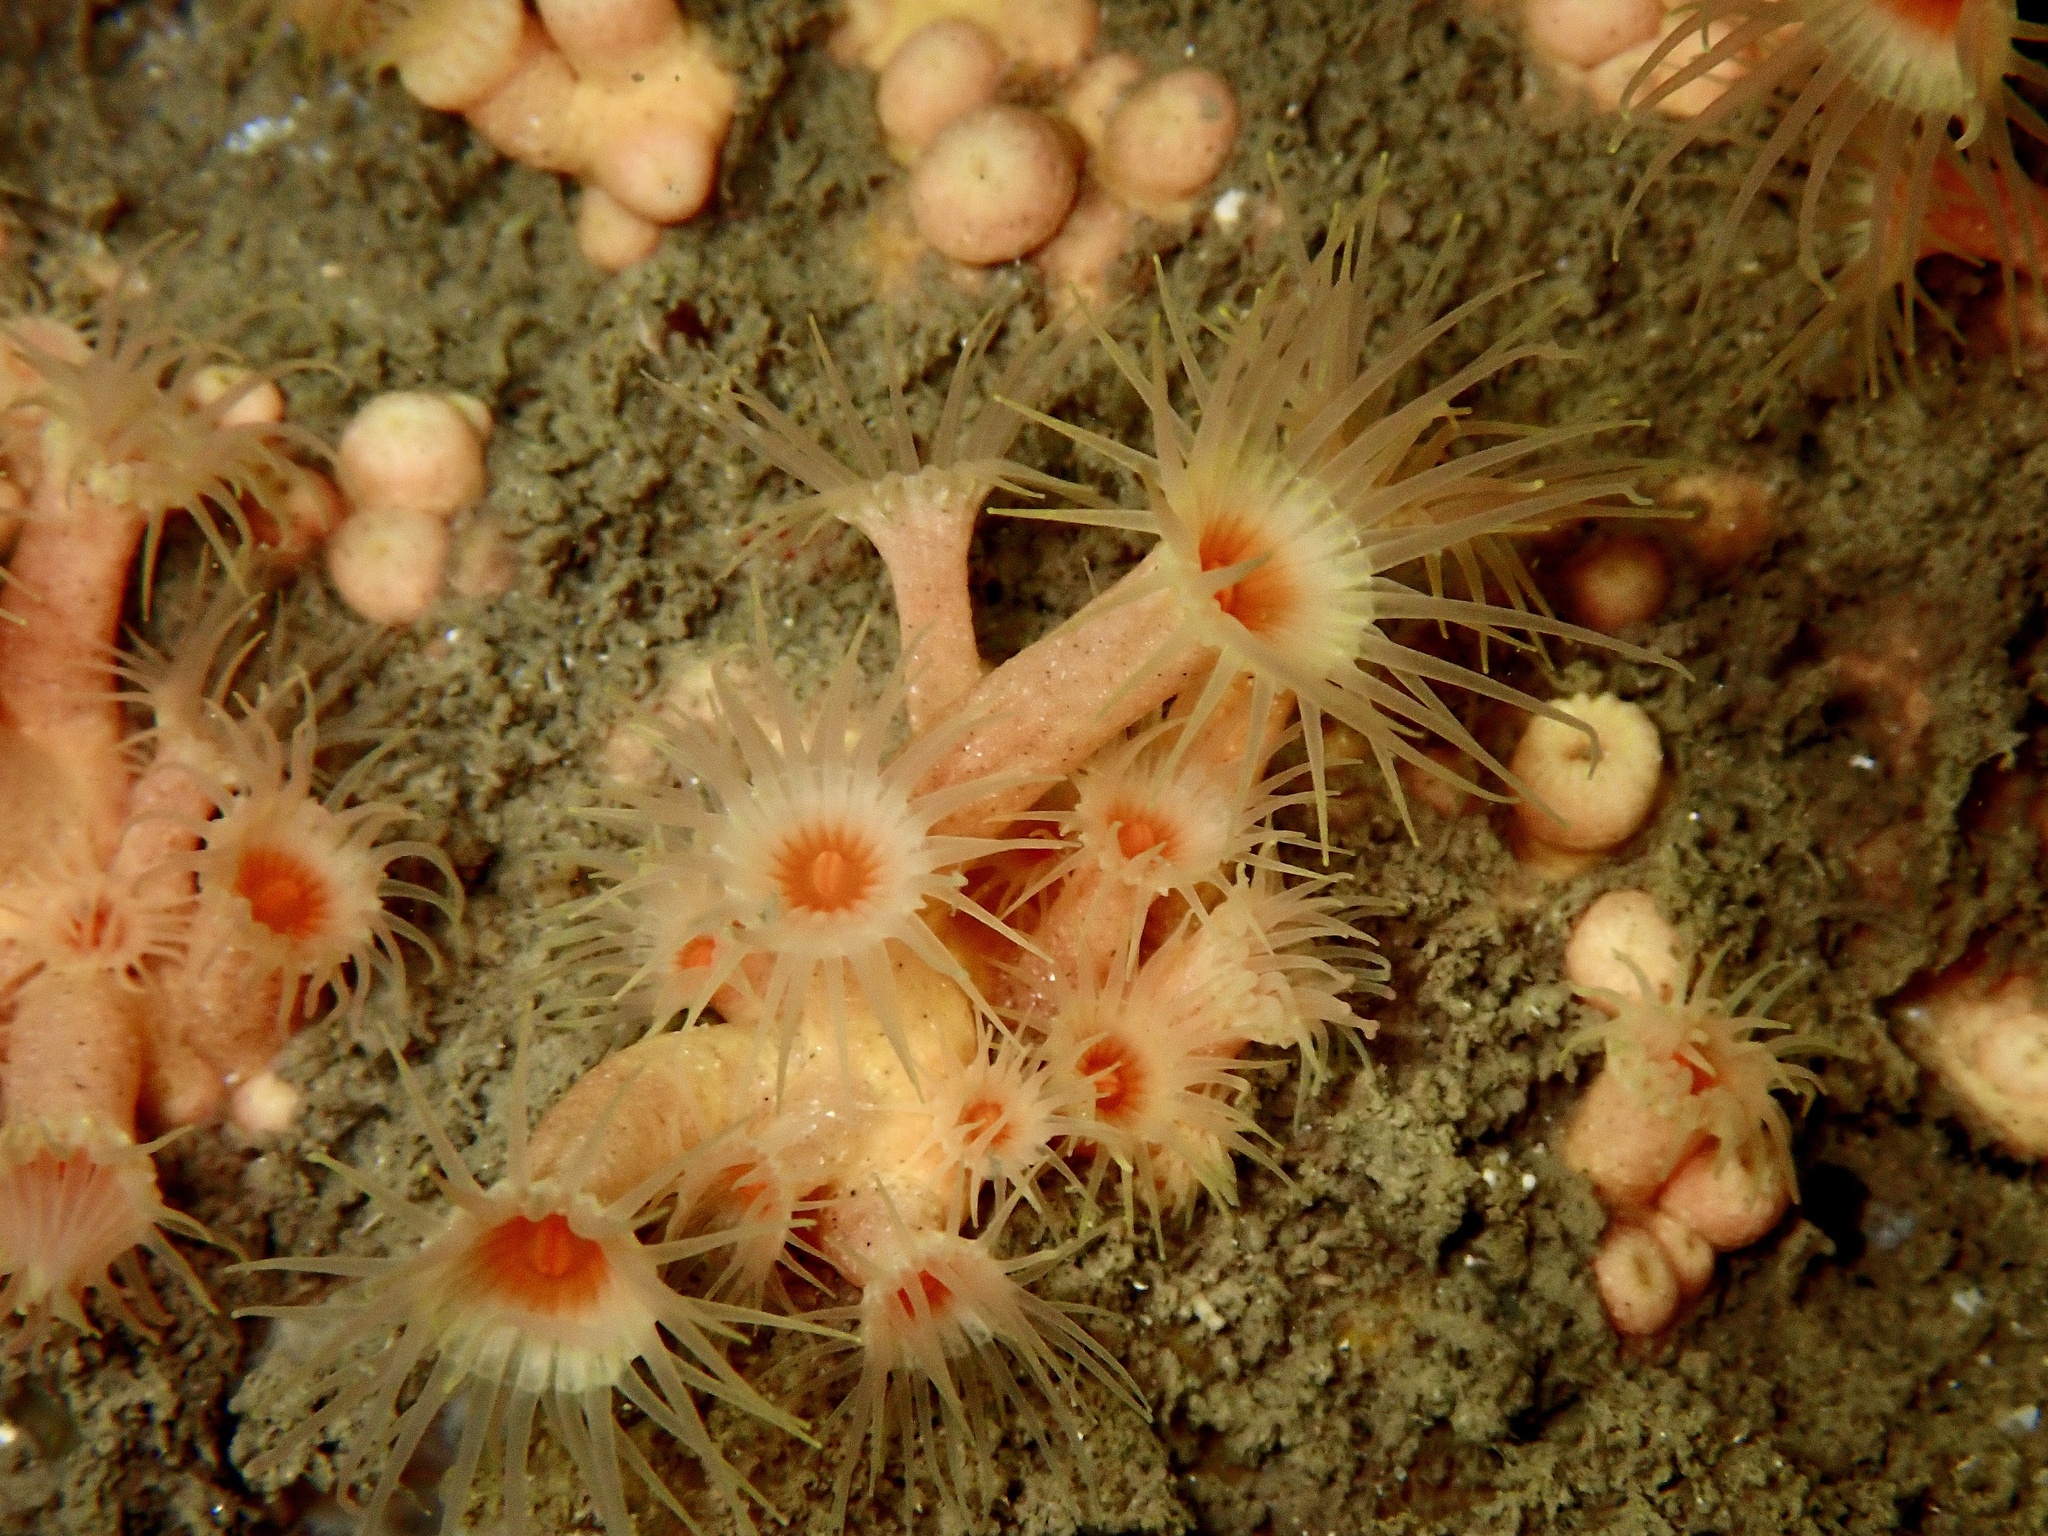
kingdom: Animalia
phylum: Cnidaria
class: Anthozoa
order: Zoantharia
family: Parazoanthidae
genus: Parazoanthus
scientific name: Parazoanthus axinellae
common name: Yellow cluster anemone
